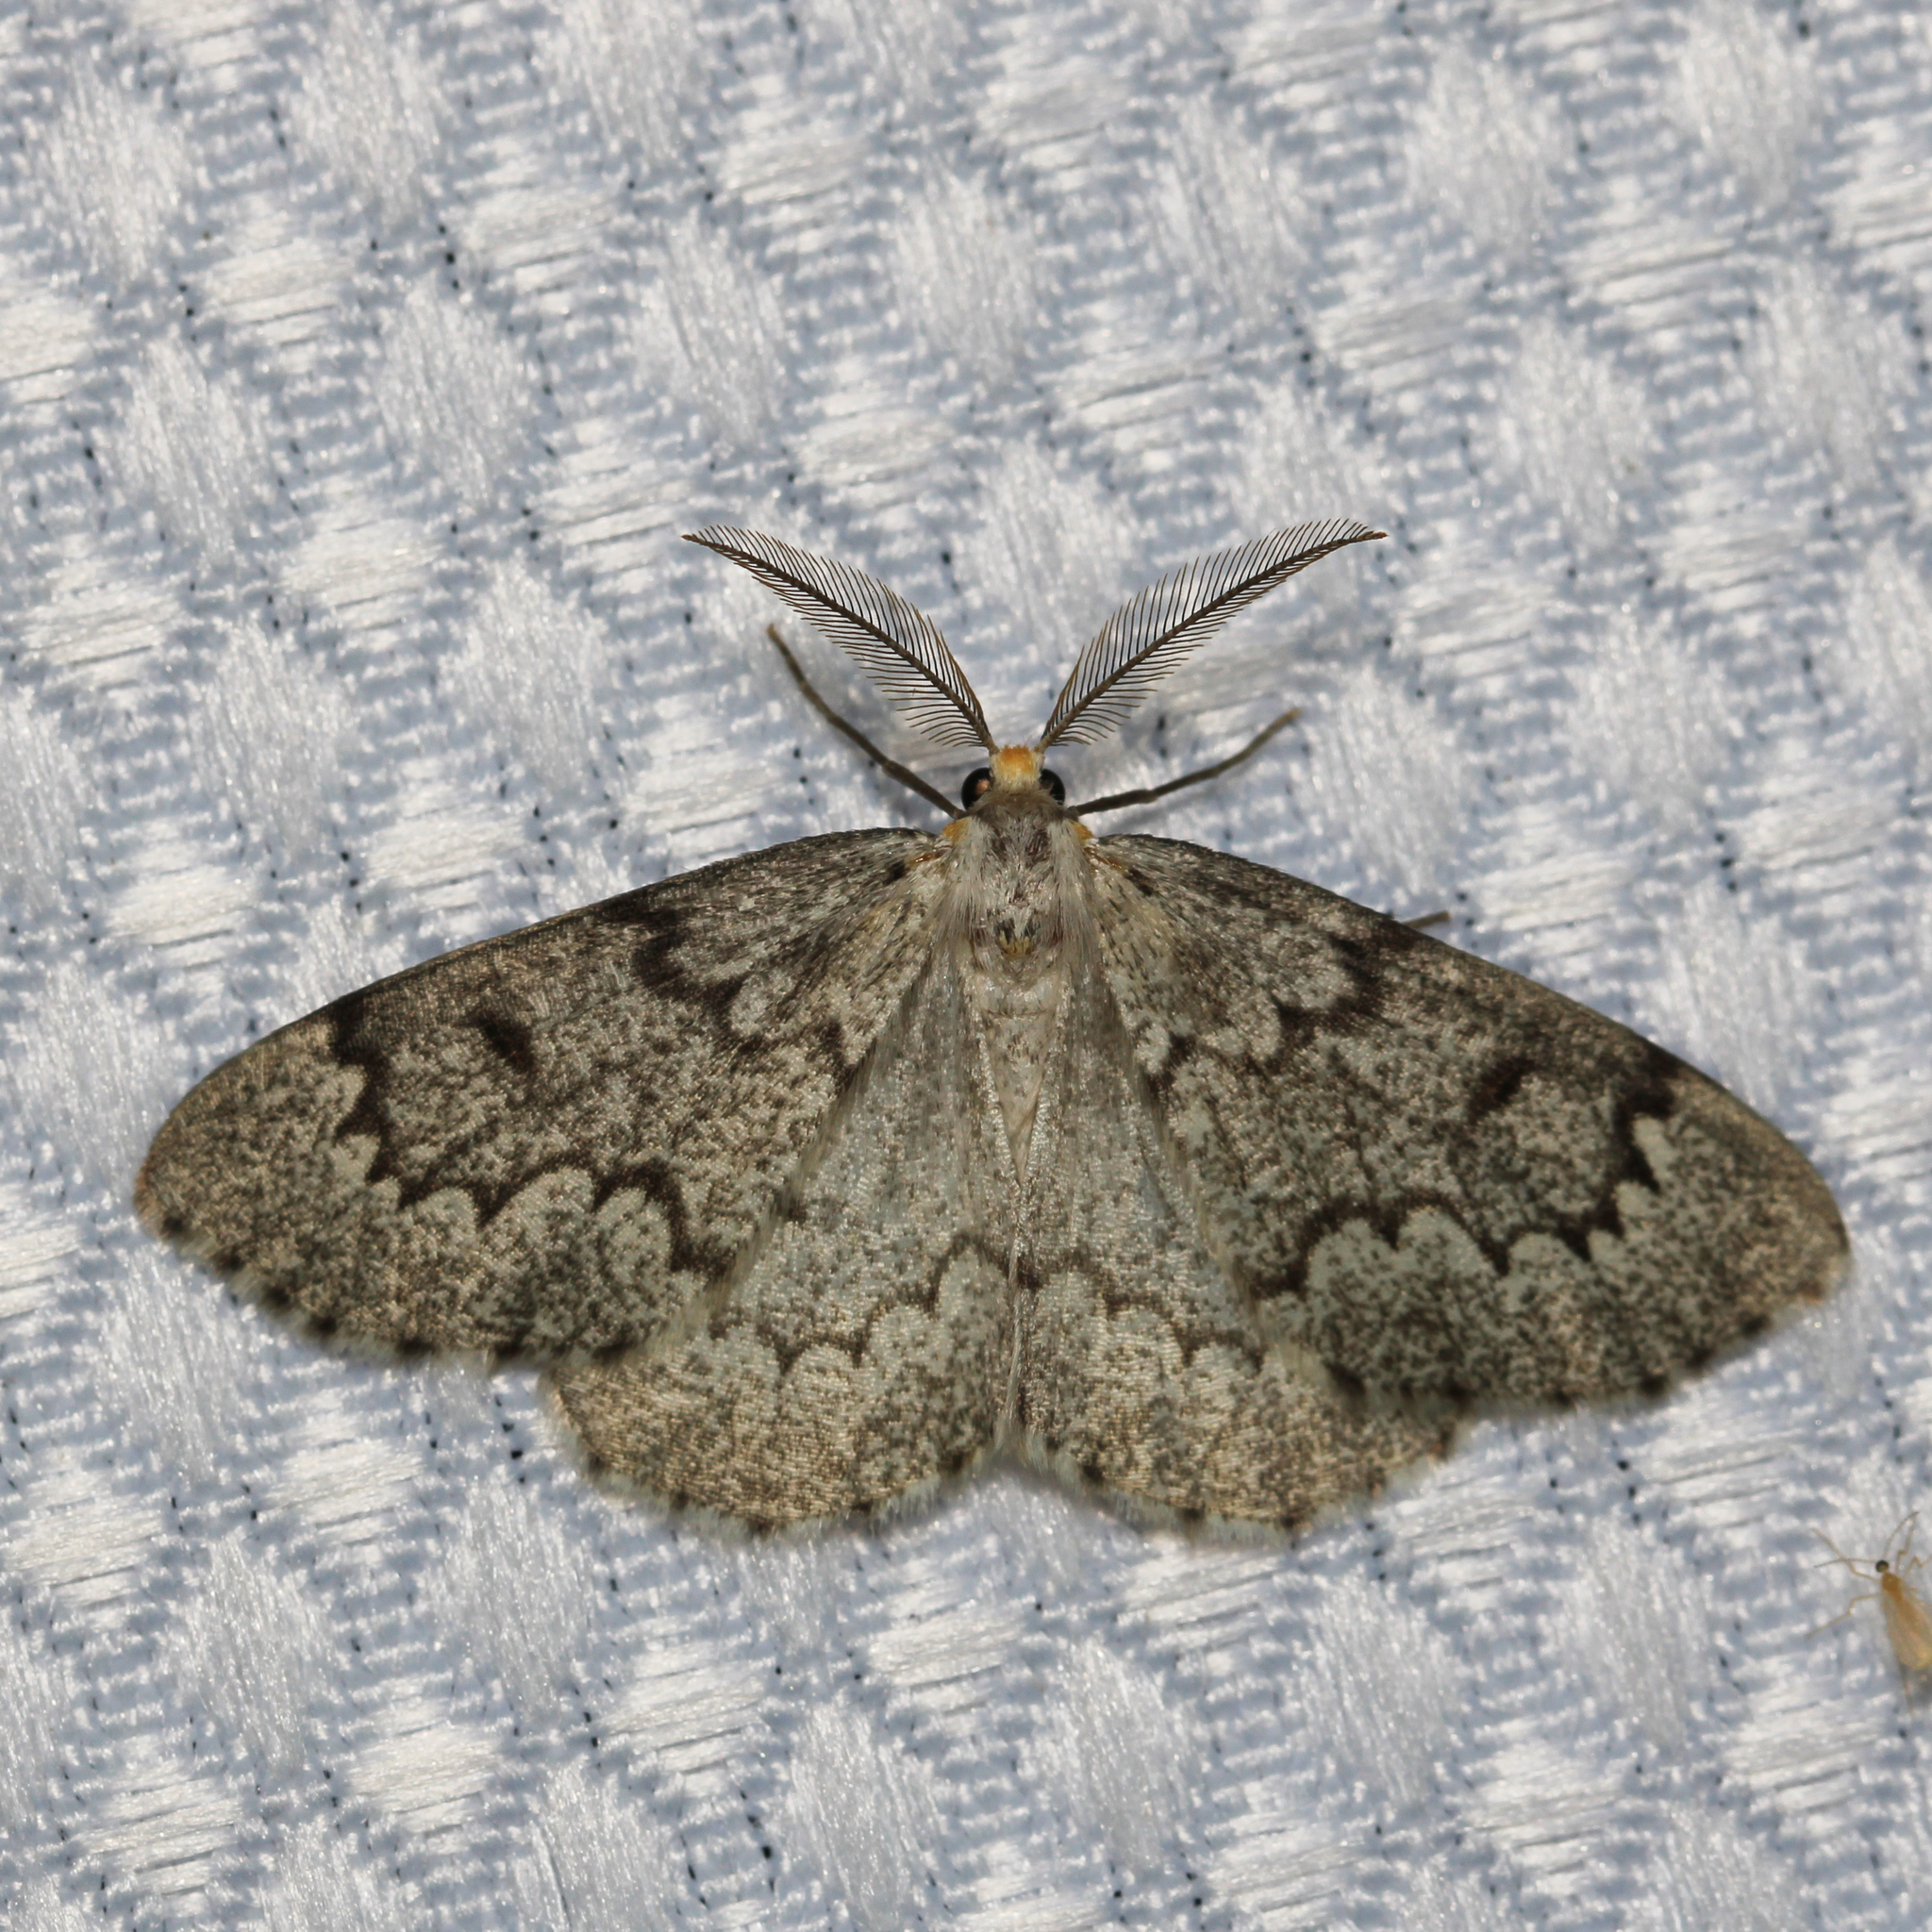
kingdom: Animalia
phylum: Arthropoda
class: Insecta
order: Lepidoptera
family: Geometridae
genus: Nepytia
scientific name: Nepytia canosaria
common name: False hemlock looper
